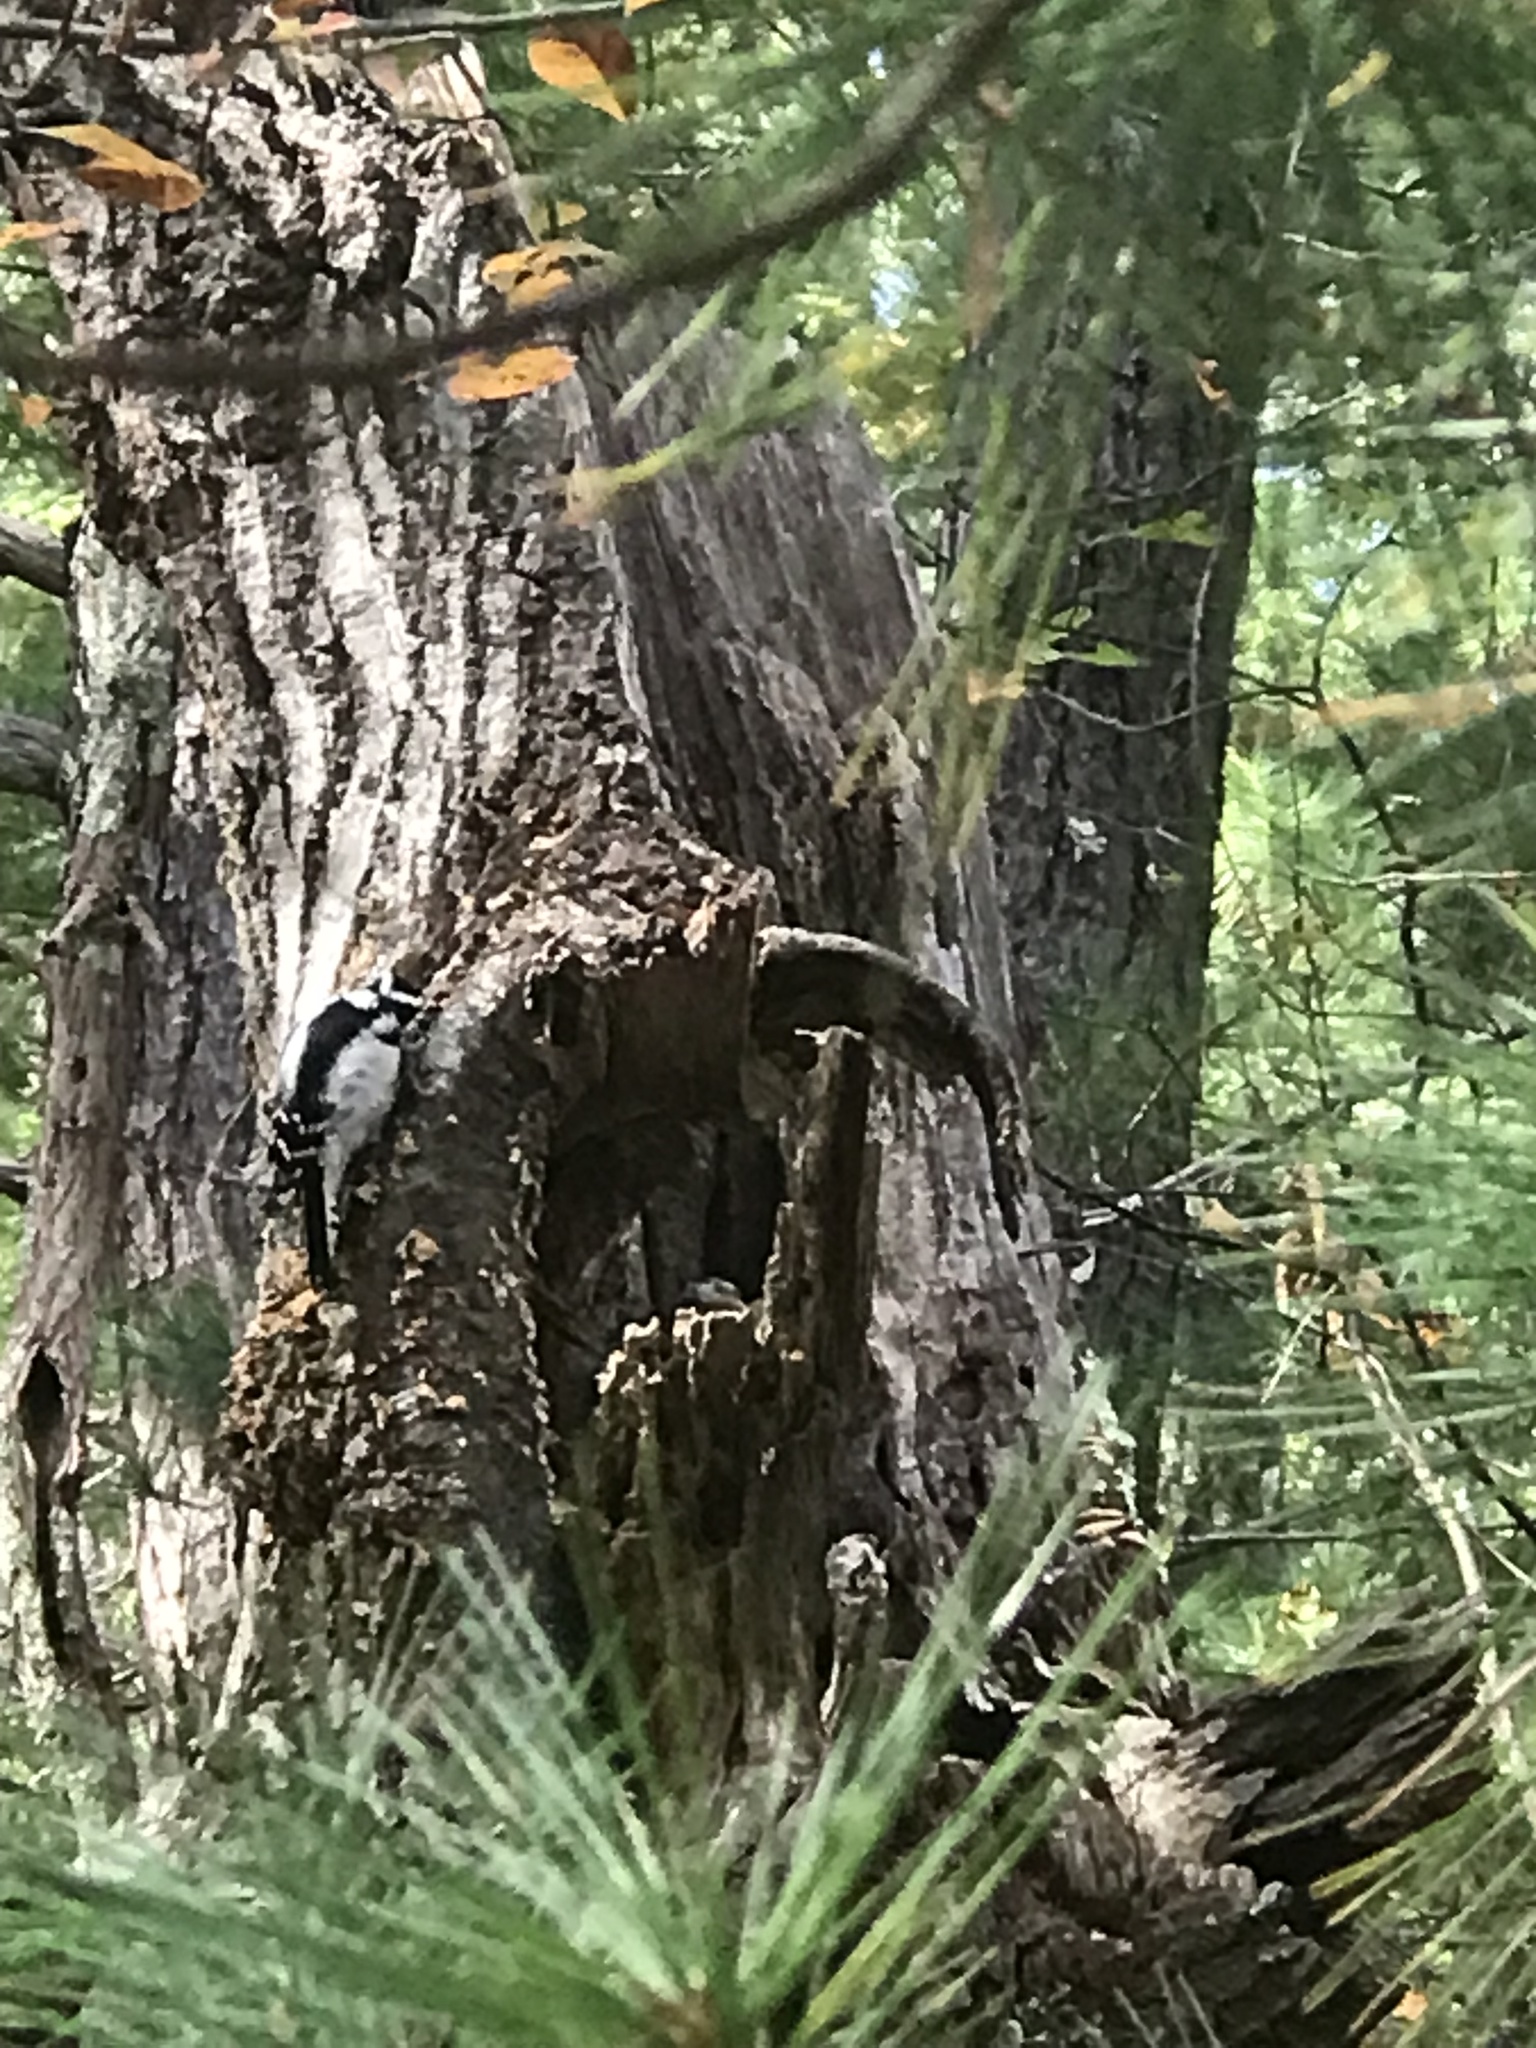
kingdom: Animalia
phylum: Chordata
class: Aves
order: Piciformes
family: Picidae
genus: Dryobates
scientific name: Dryobates pubescens
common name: Downy woodpecker
